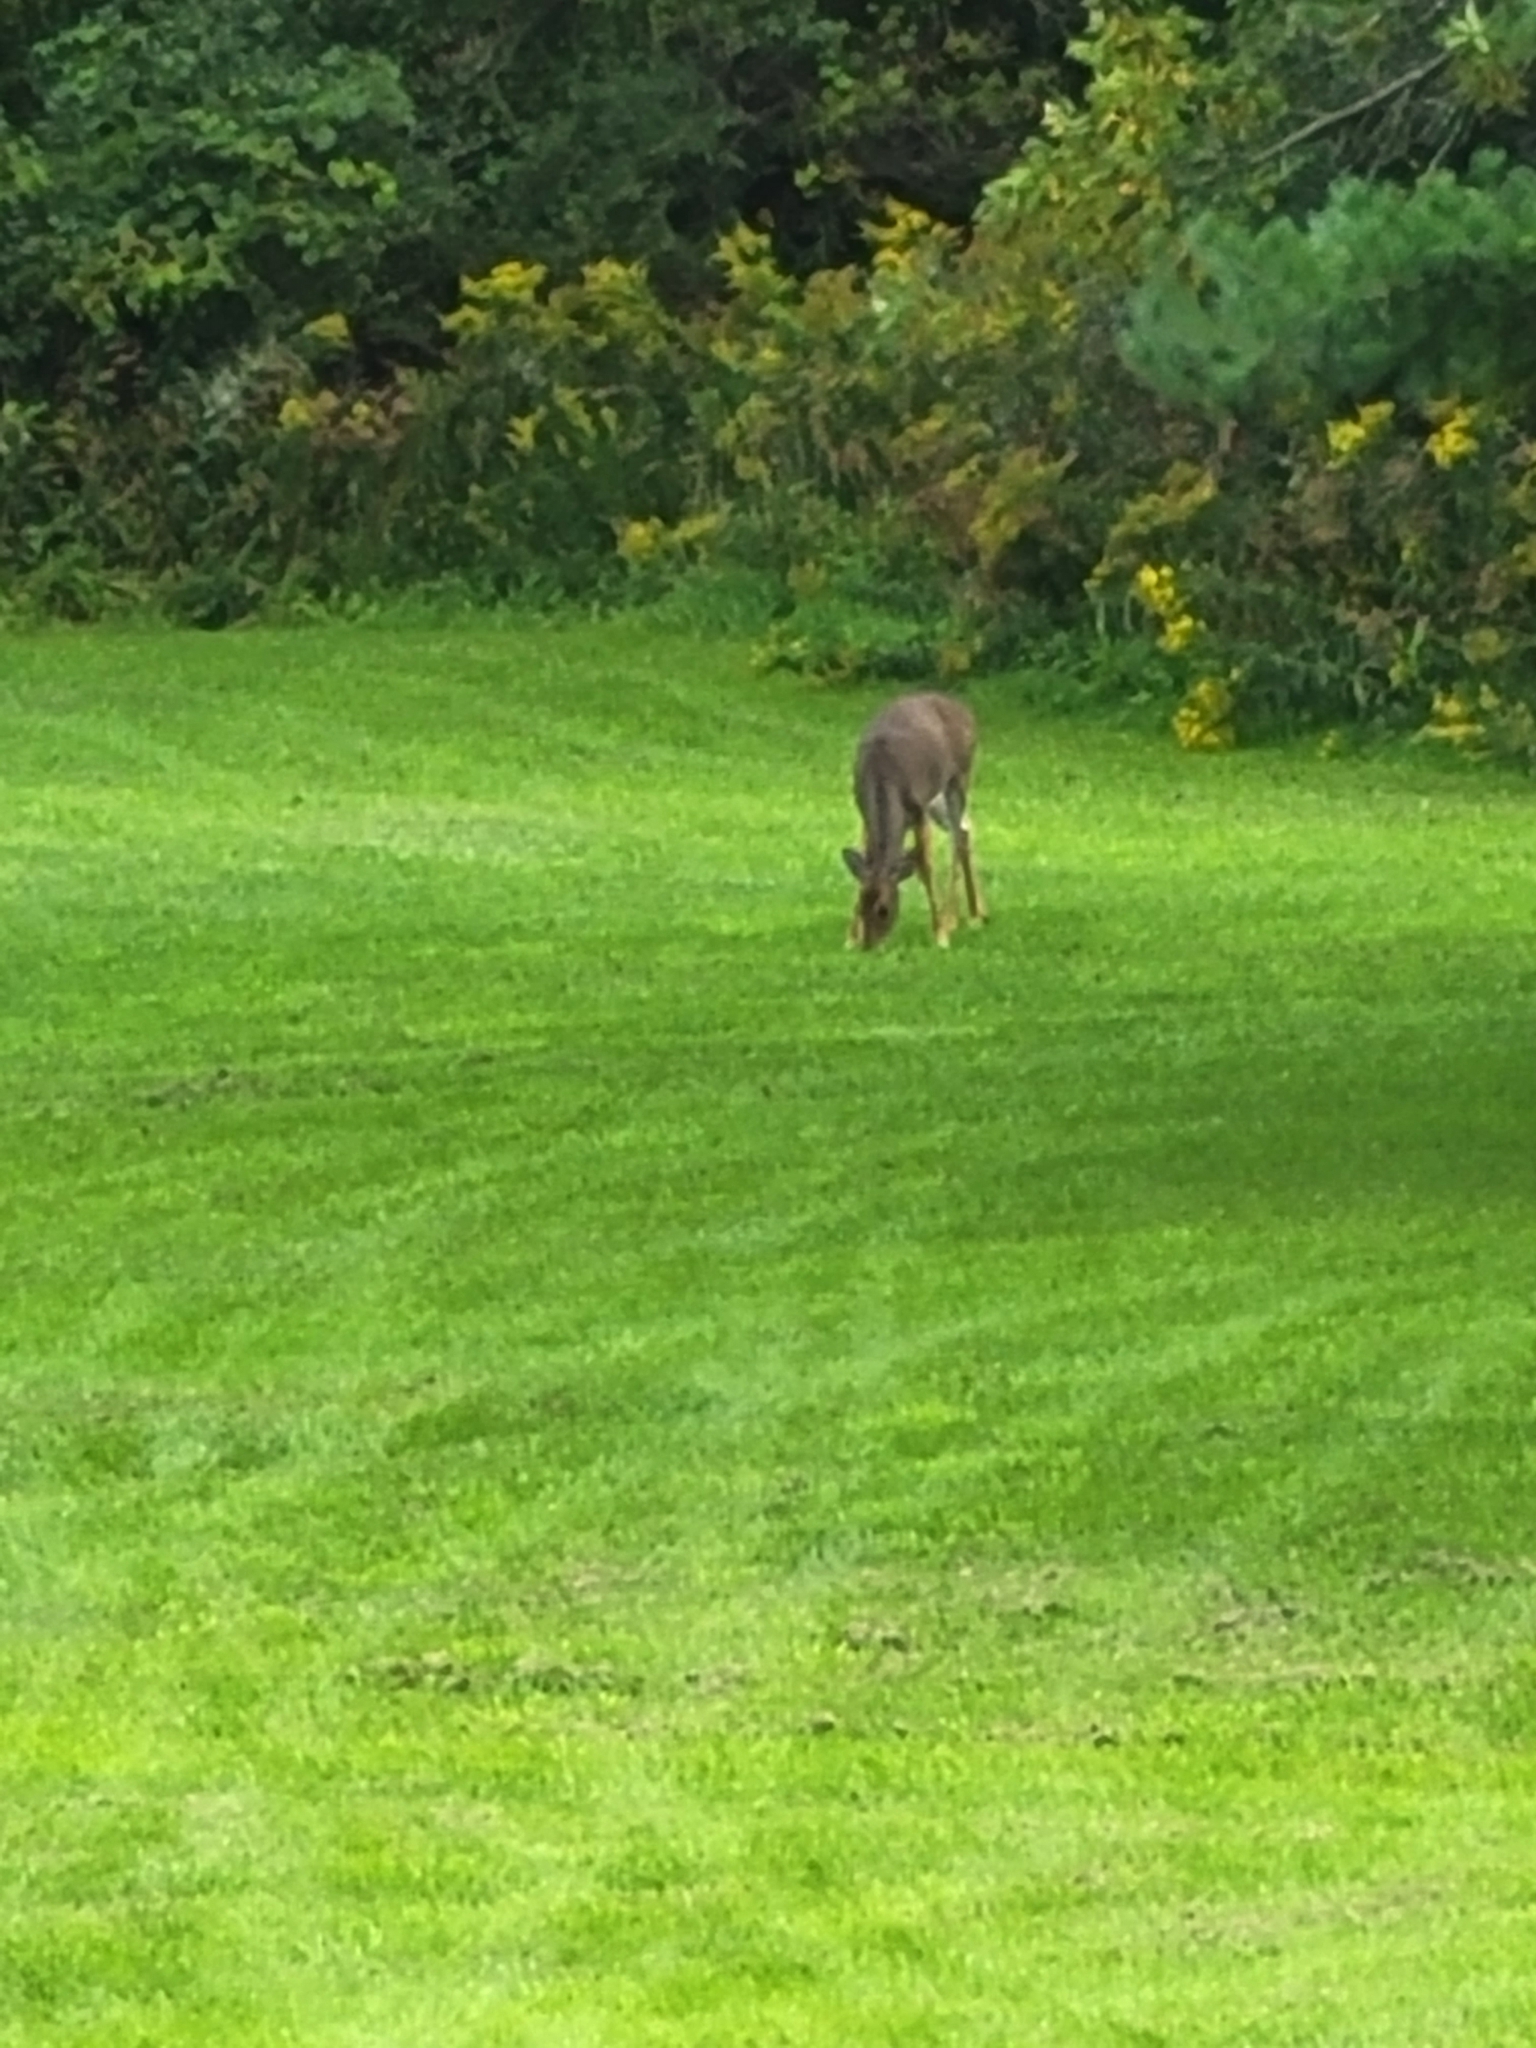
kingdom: Animalia
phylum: Chordata
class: Mammalia
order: Artiodactyla
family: Cervidae
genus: Odocoileus
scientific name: Odocoileus virginianus
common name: White-tailed deer
